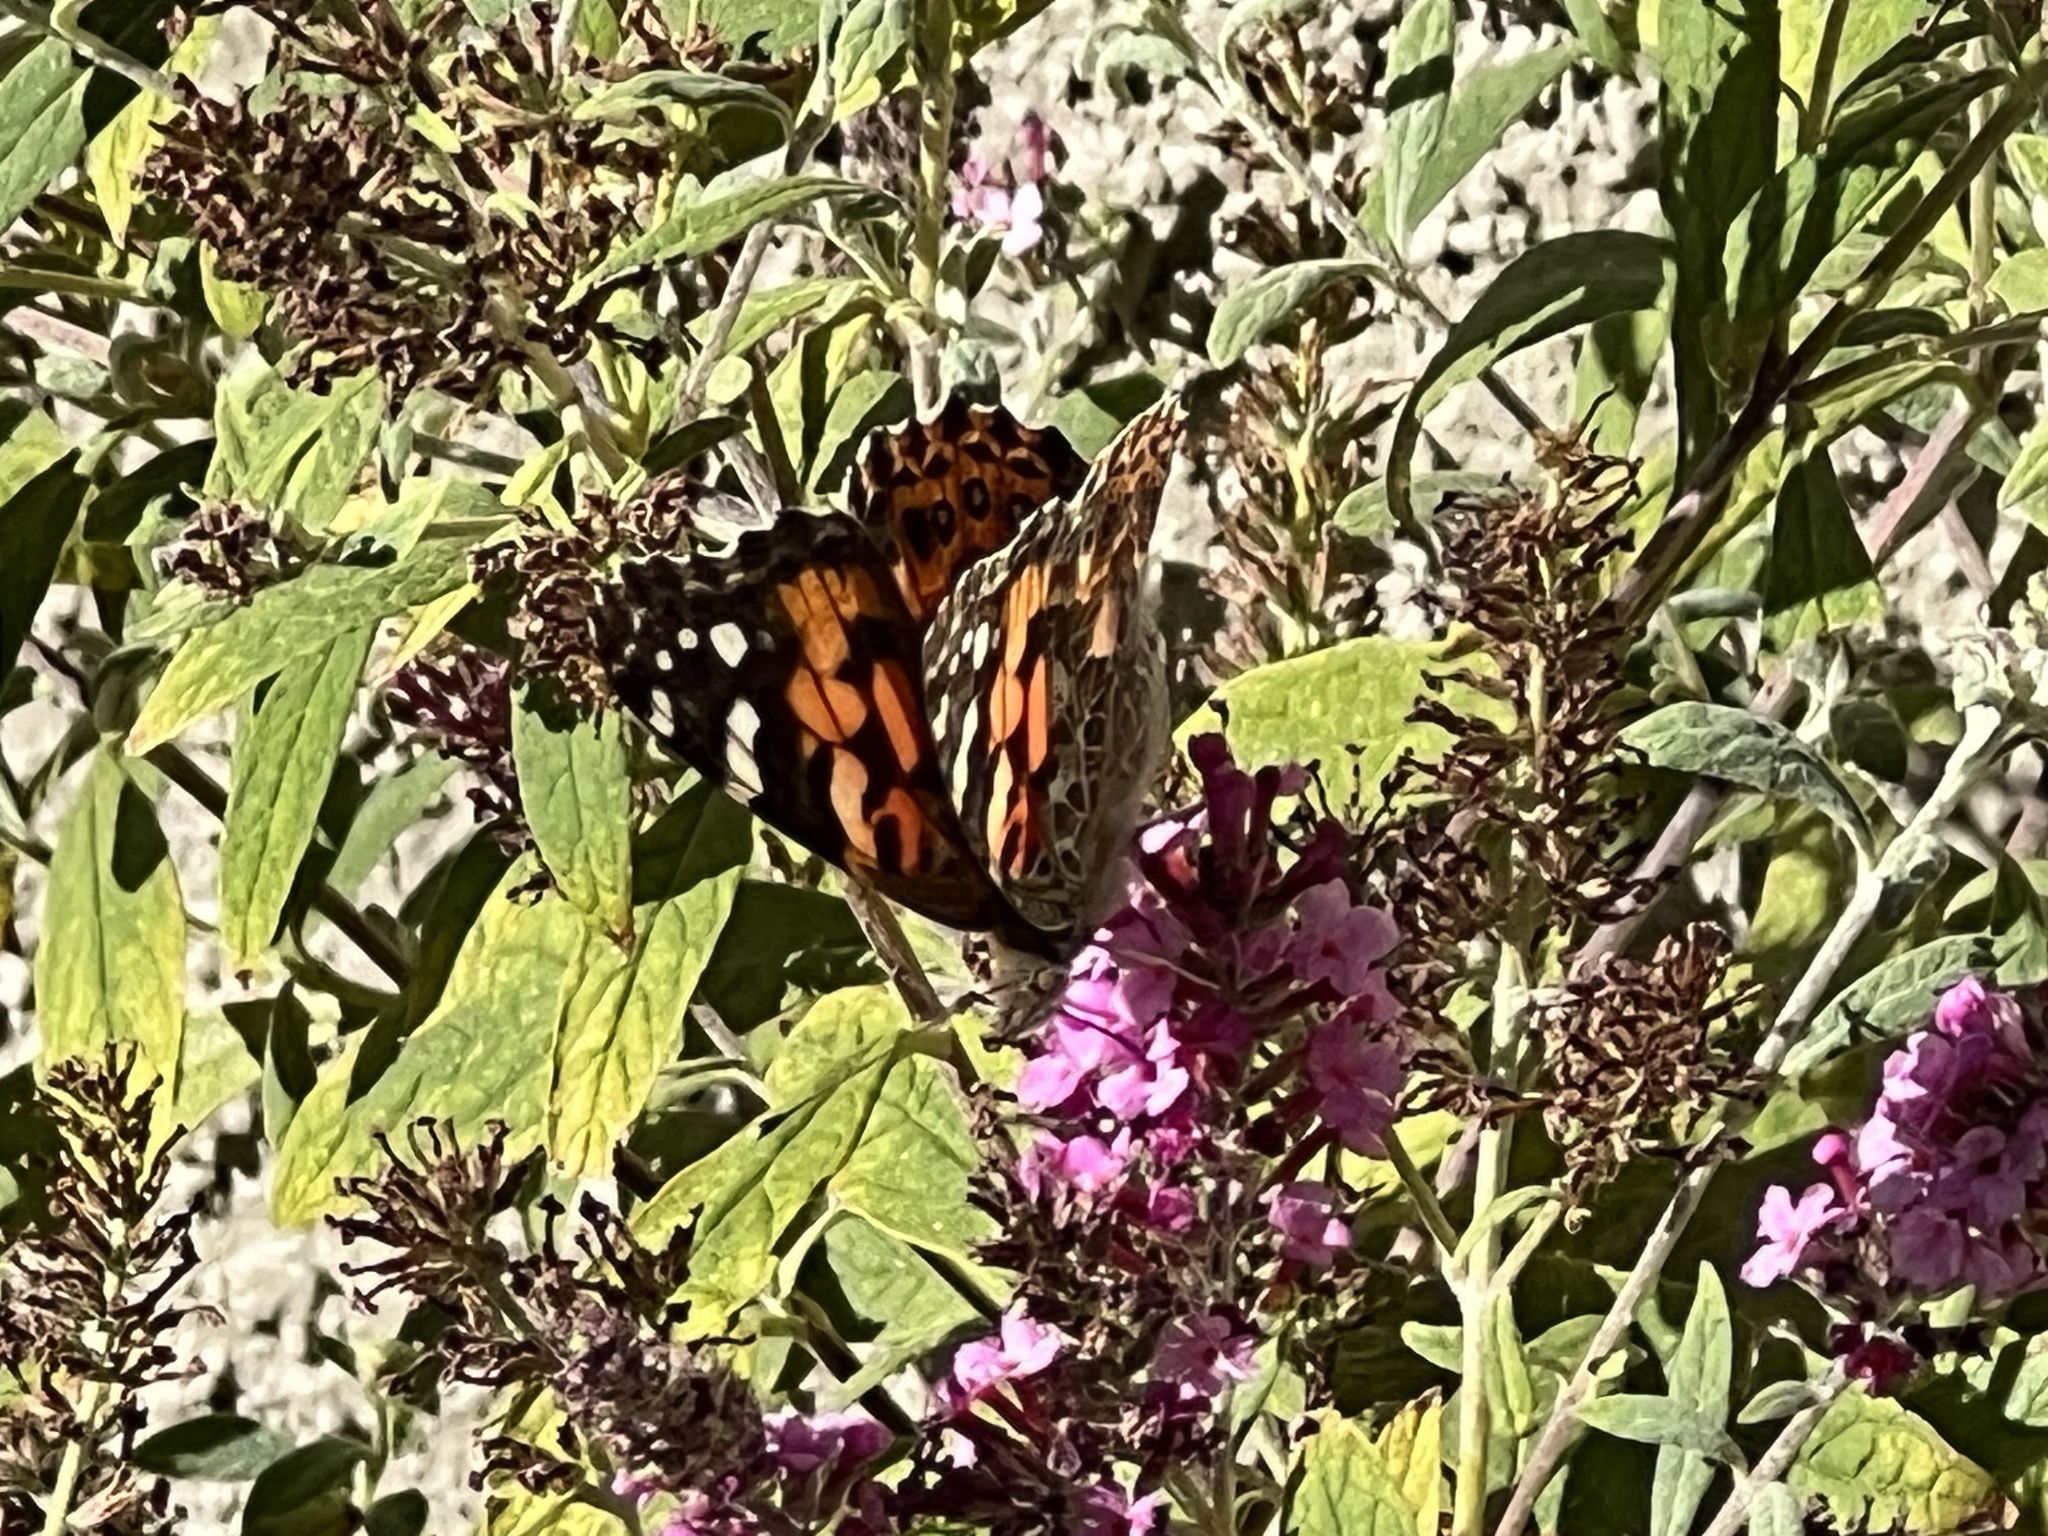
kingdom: Animalia
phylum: Arthropoda
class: Insecta
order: Lepidoptera
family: Nymphalidae
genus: Vanessa
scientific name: Vanessa cardui
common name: Painted lady
